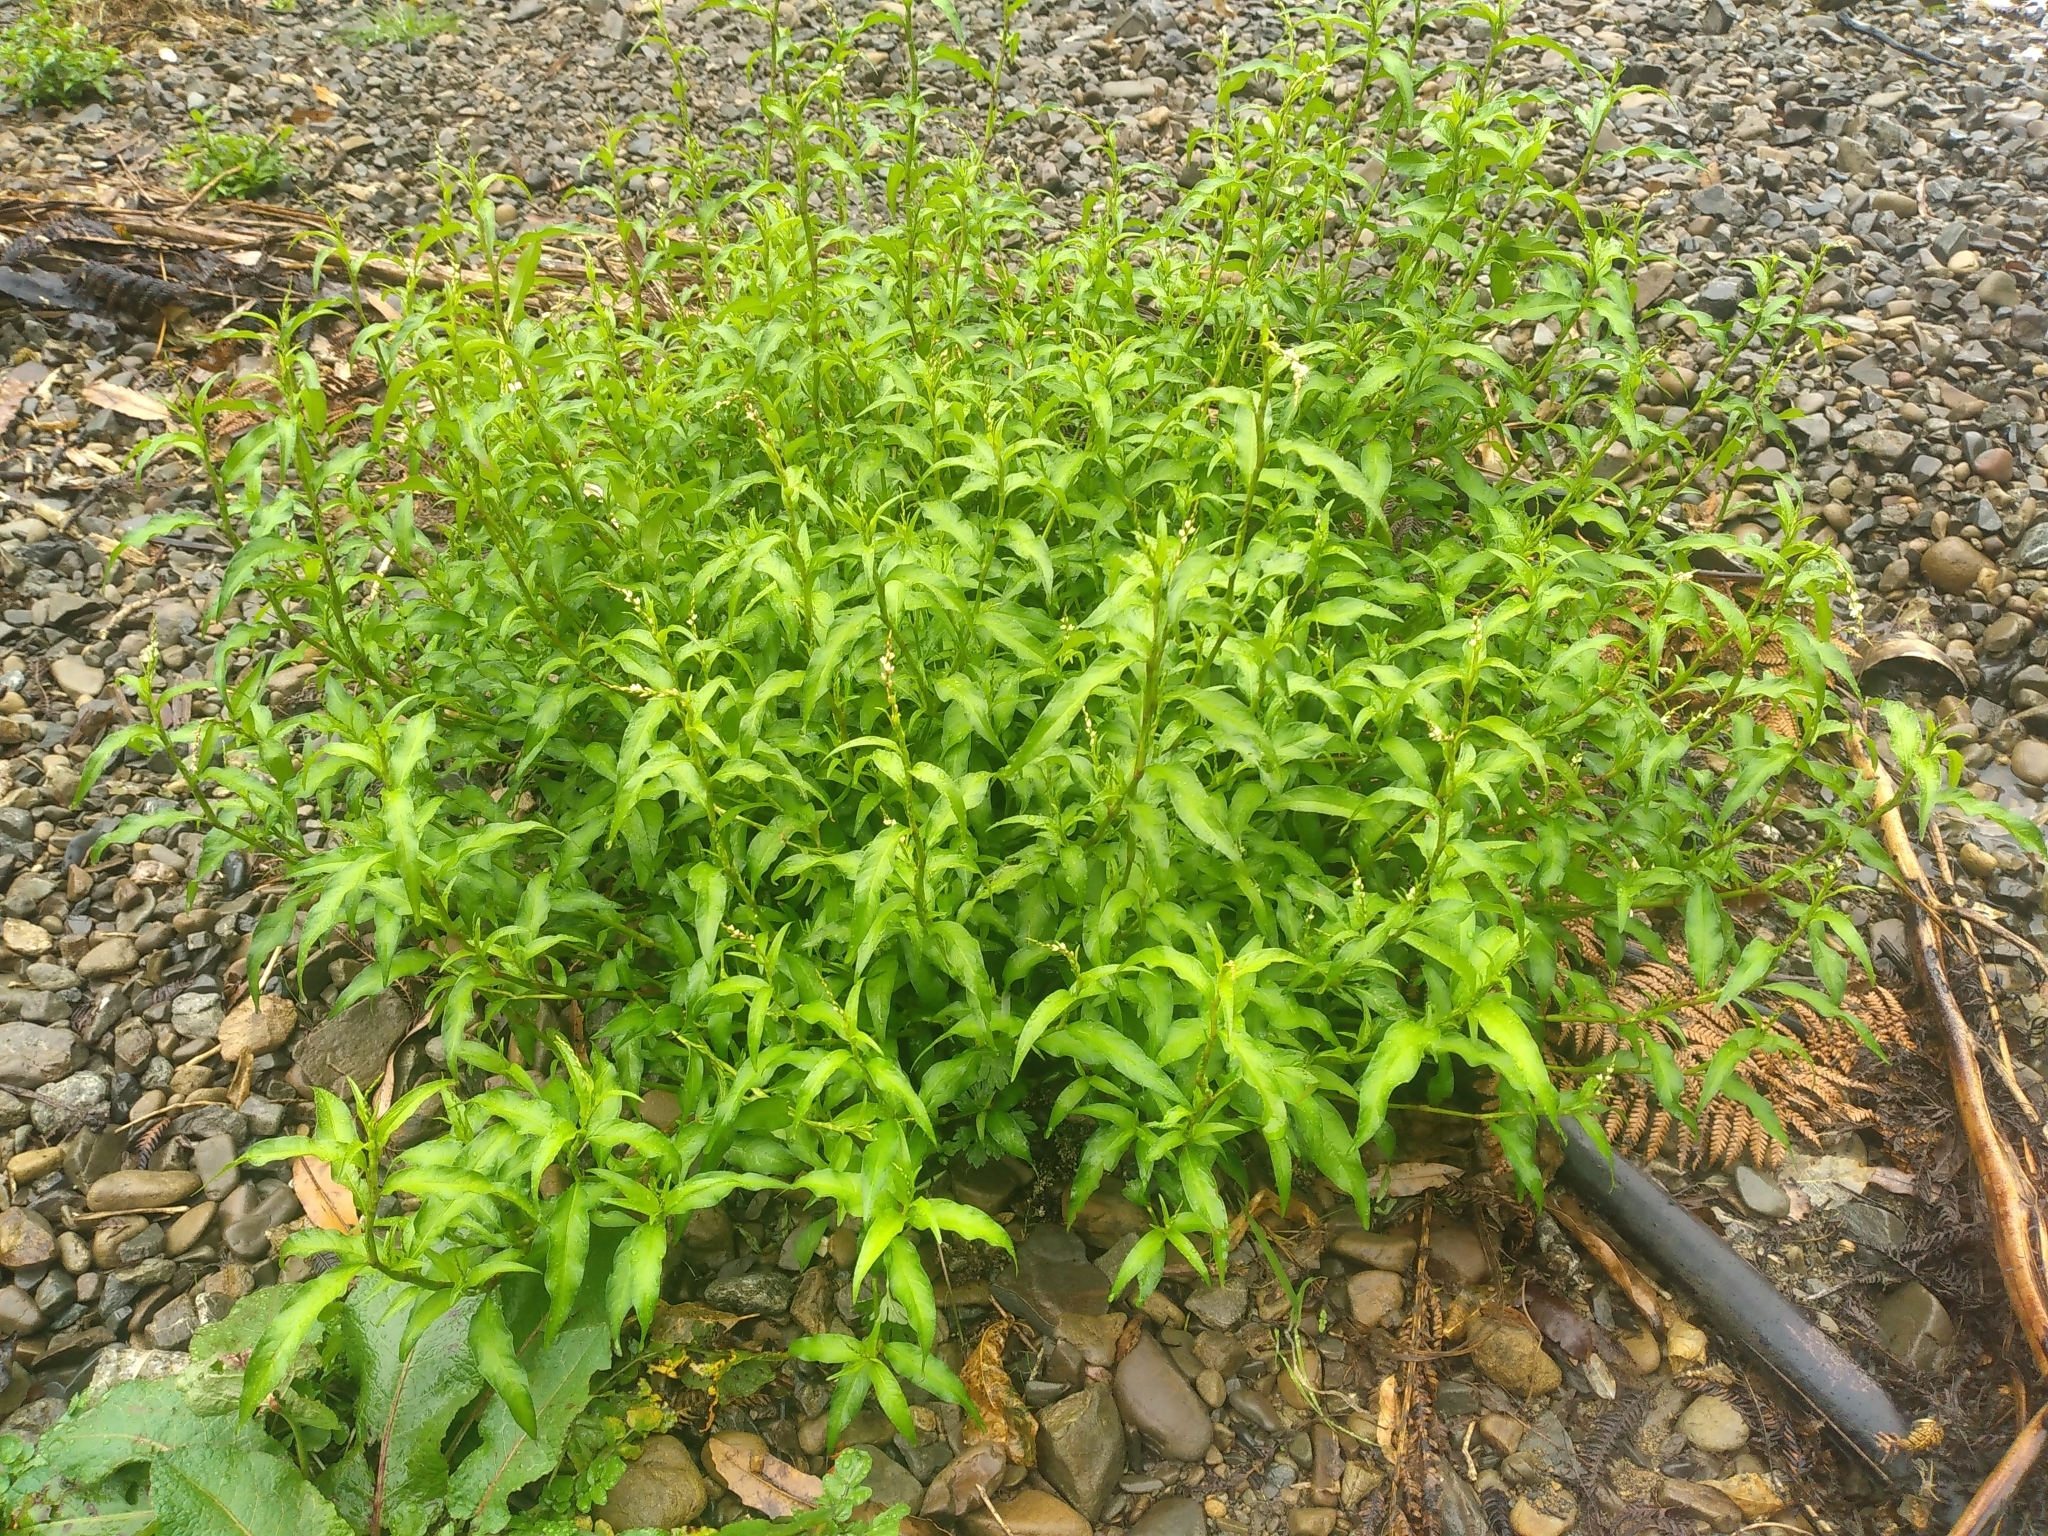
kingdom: Plantae
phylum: Tracheophyta
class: Magnoliopsida
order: Caryophyllales
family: Polygonaceae
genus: Persicaria
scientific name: Persicaria hydropiper
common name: Water-pepper
